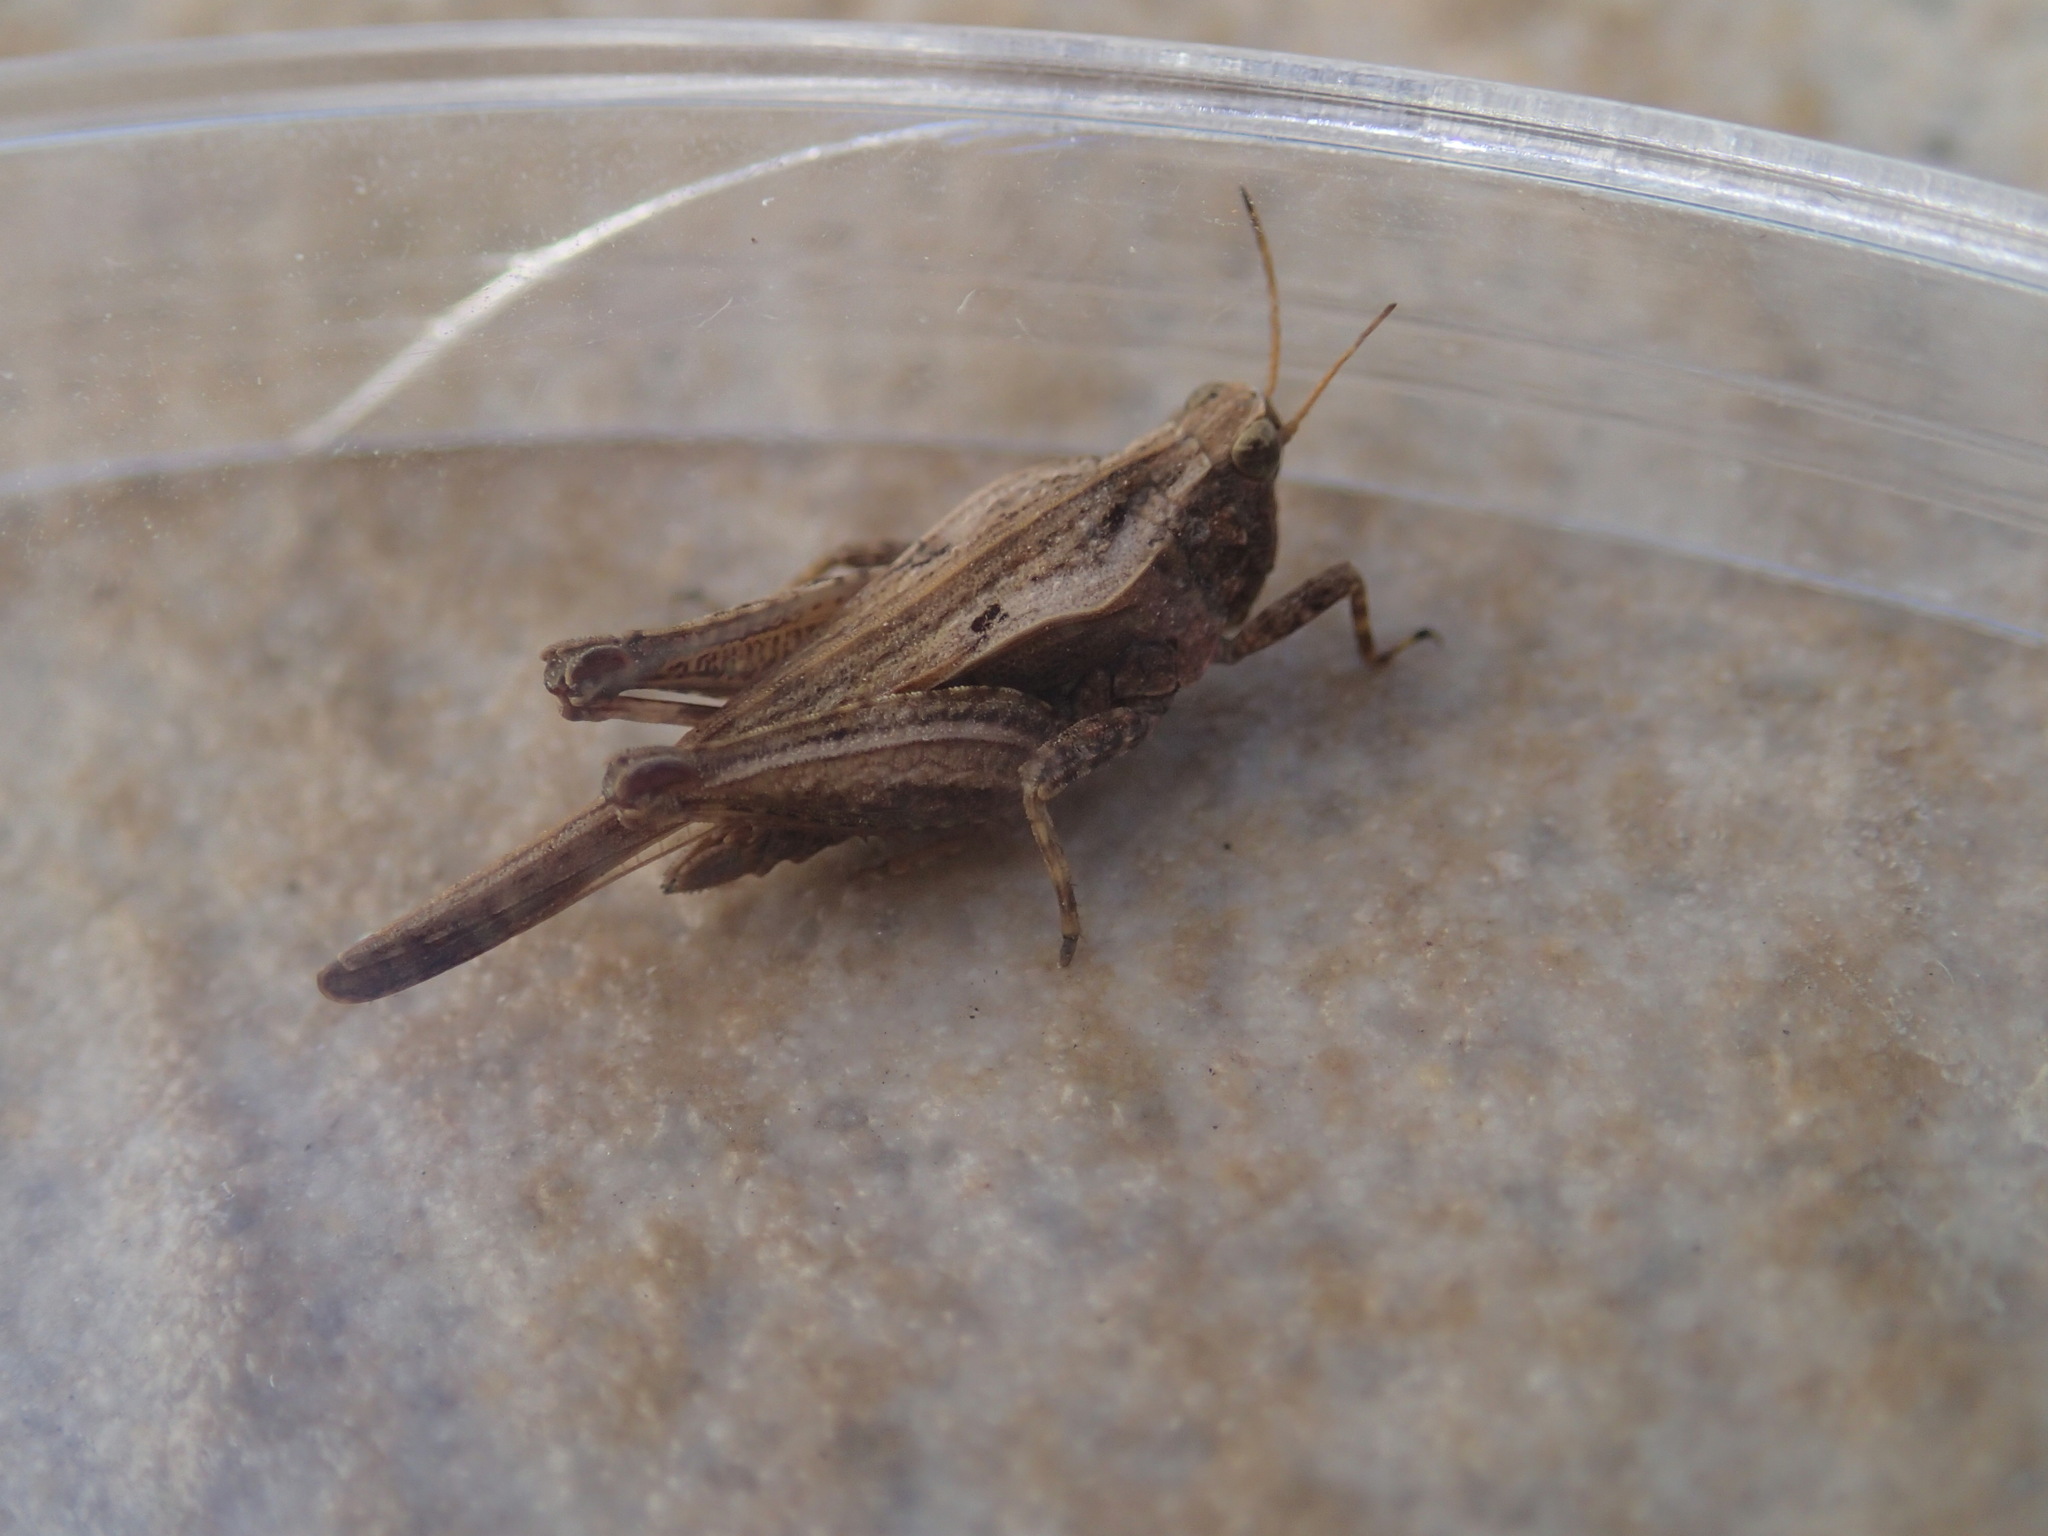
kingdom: Animalia
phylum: Arthropoda
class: Insecta
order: Orthoptera
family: Tetrigidae
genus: Tetrix
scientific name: Tetrix subulata
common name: Slender ground-hopper
